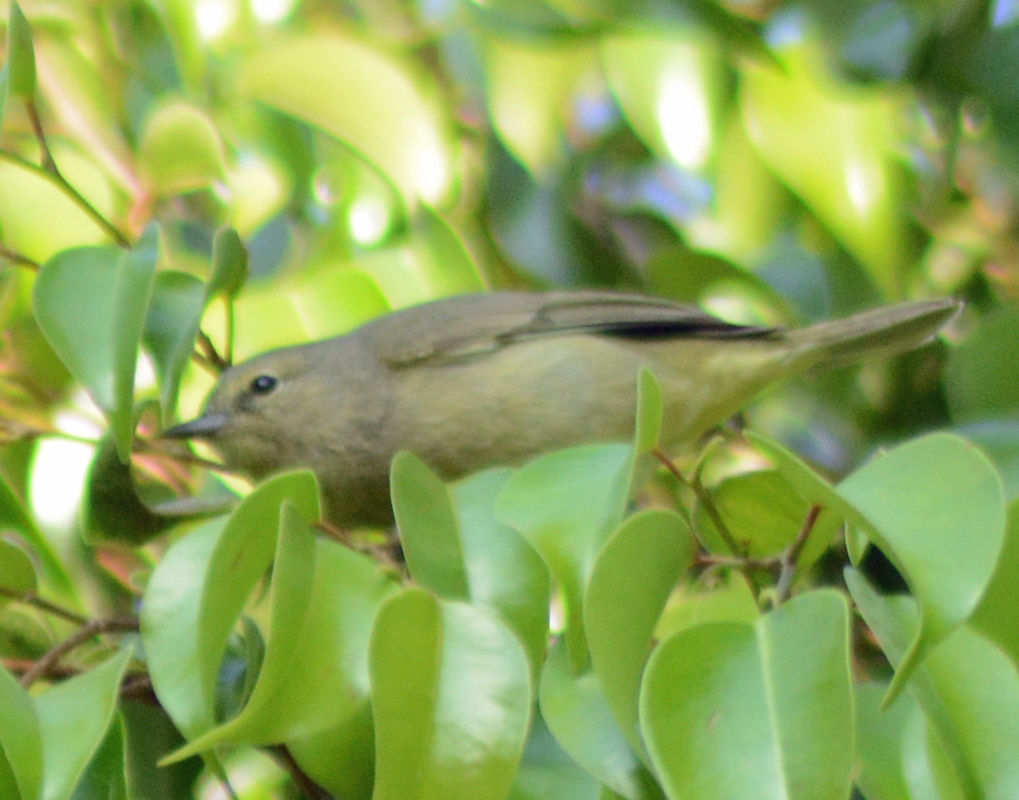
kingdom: Animalia
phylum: Chordata
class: Aves
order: Passeriformes
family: Parulidae
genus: Leiothlypis
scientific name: Leiothlypis celata
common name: Orange-crowned warbler
